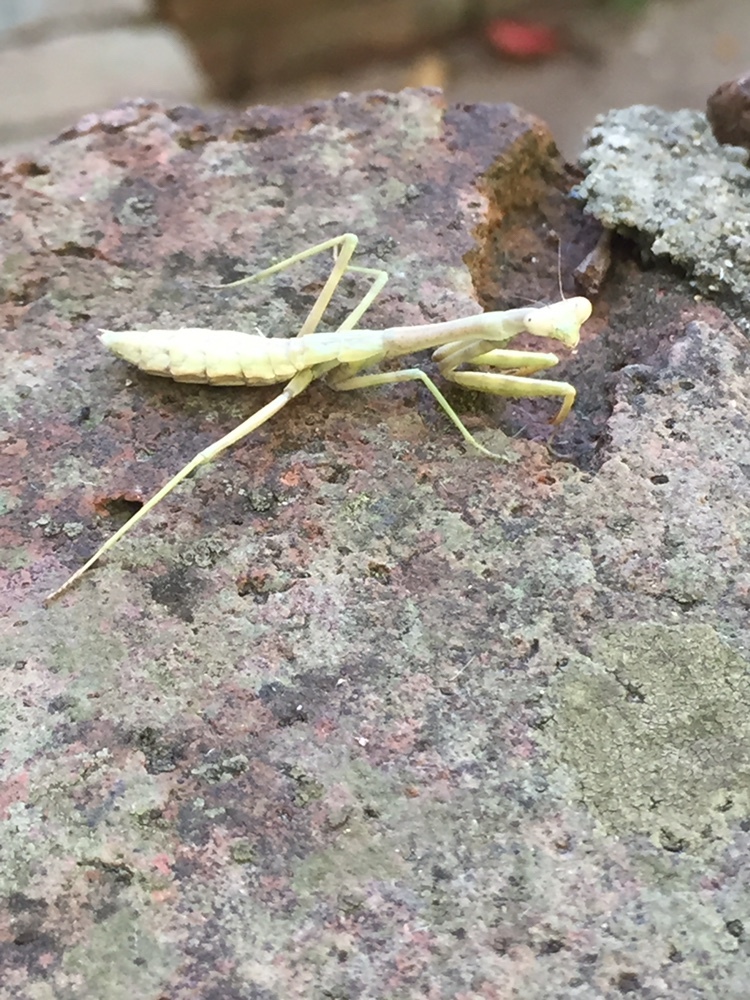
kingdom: Animalia
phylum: Arthropoda
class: Insecta
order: Mantodea
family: Mantidae
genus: Stagmomantis
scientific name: Stagmomantis carolina
